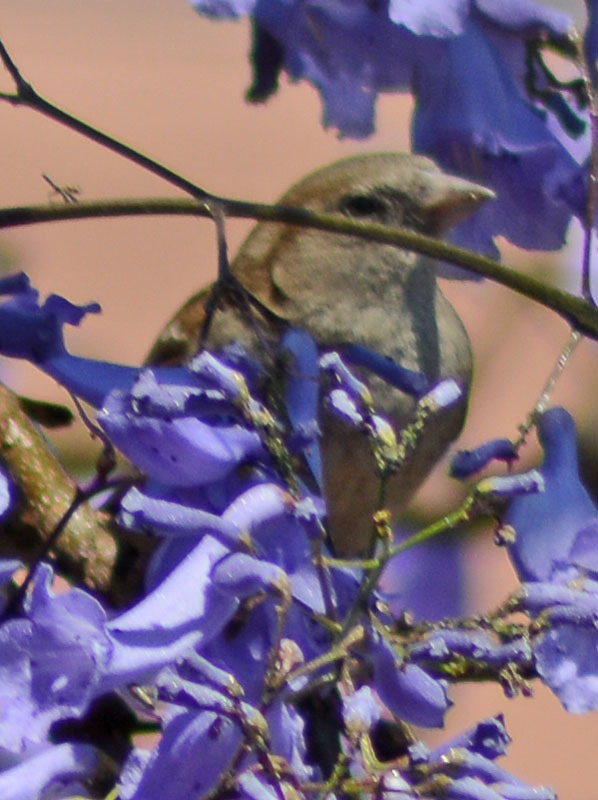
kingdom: Animalia
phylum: Chordata
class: Aves
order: Passeriformes
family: Passeridae
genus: Passer
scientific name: Passer domesticus
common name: House sparrow
